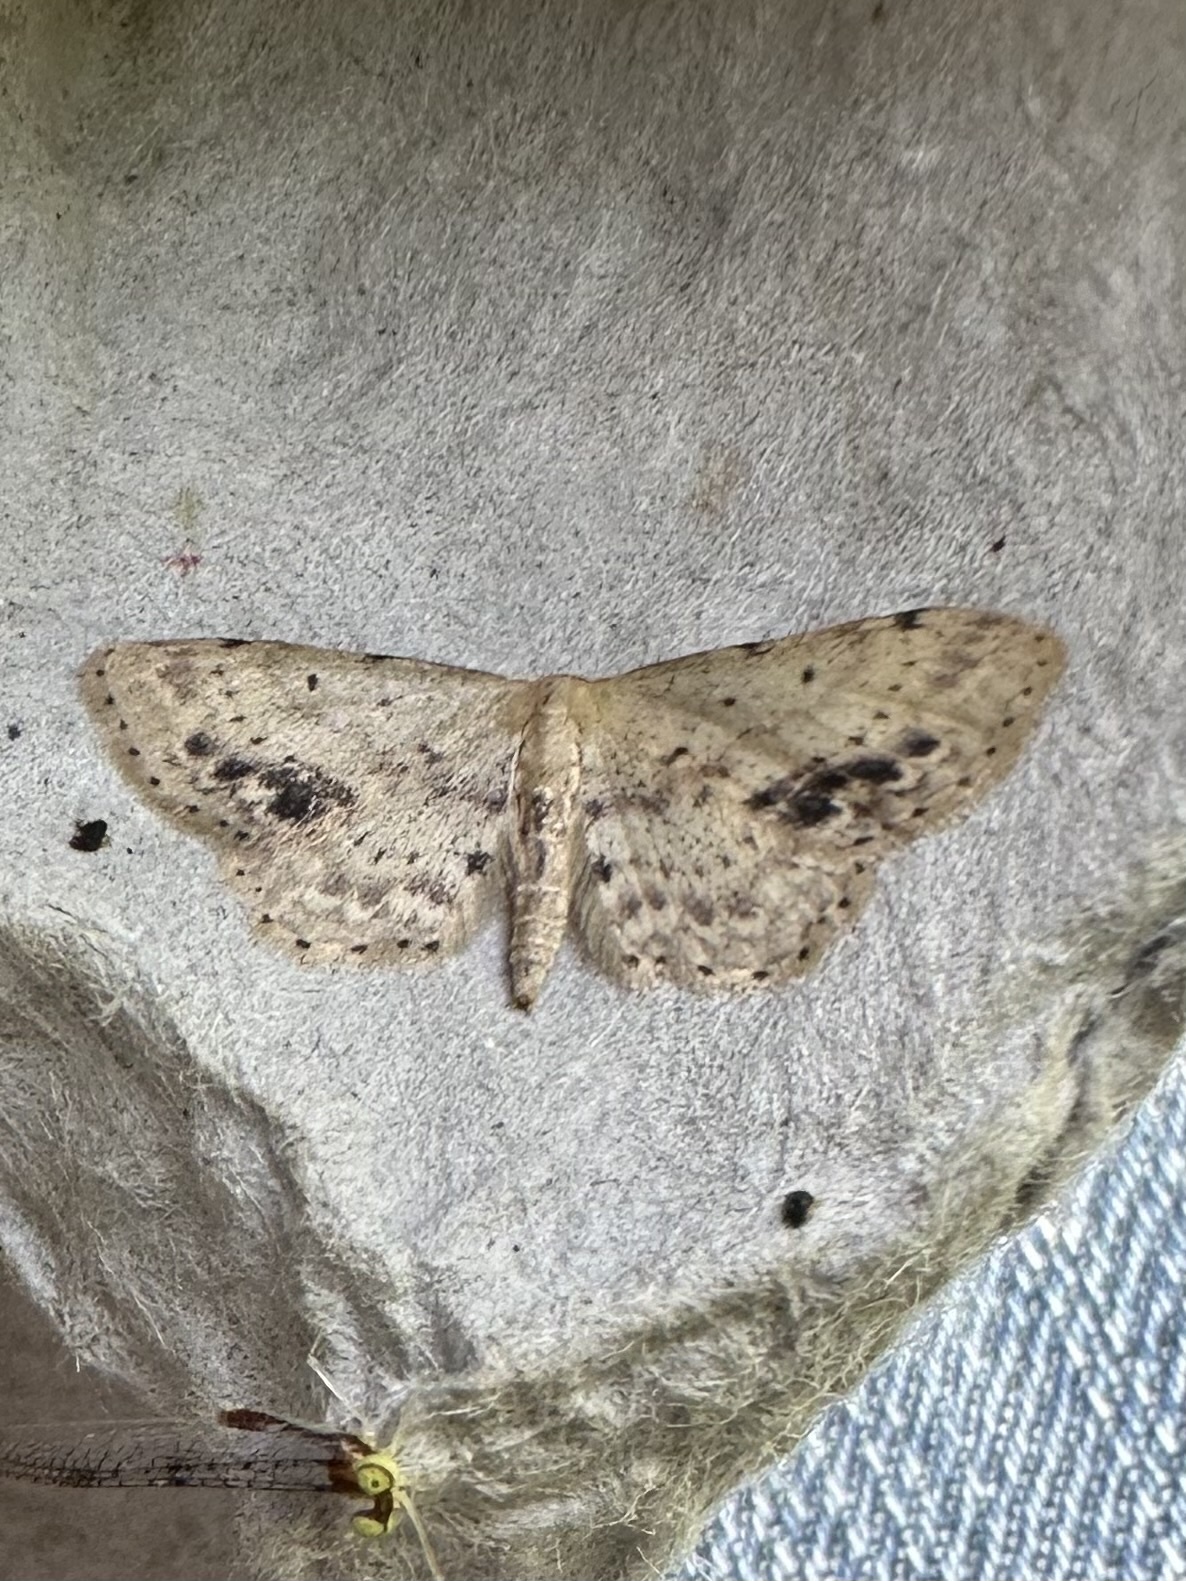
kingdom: Animalia
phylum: Arthropoda
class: Insecta
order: Lepidoptera
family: Geometridae
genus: Idaea
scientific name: Idaea dimidiata
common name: Single-dotted wave
